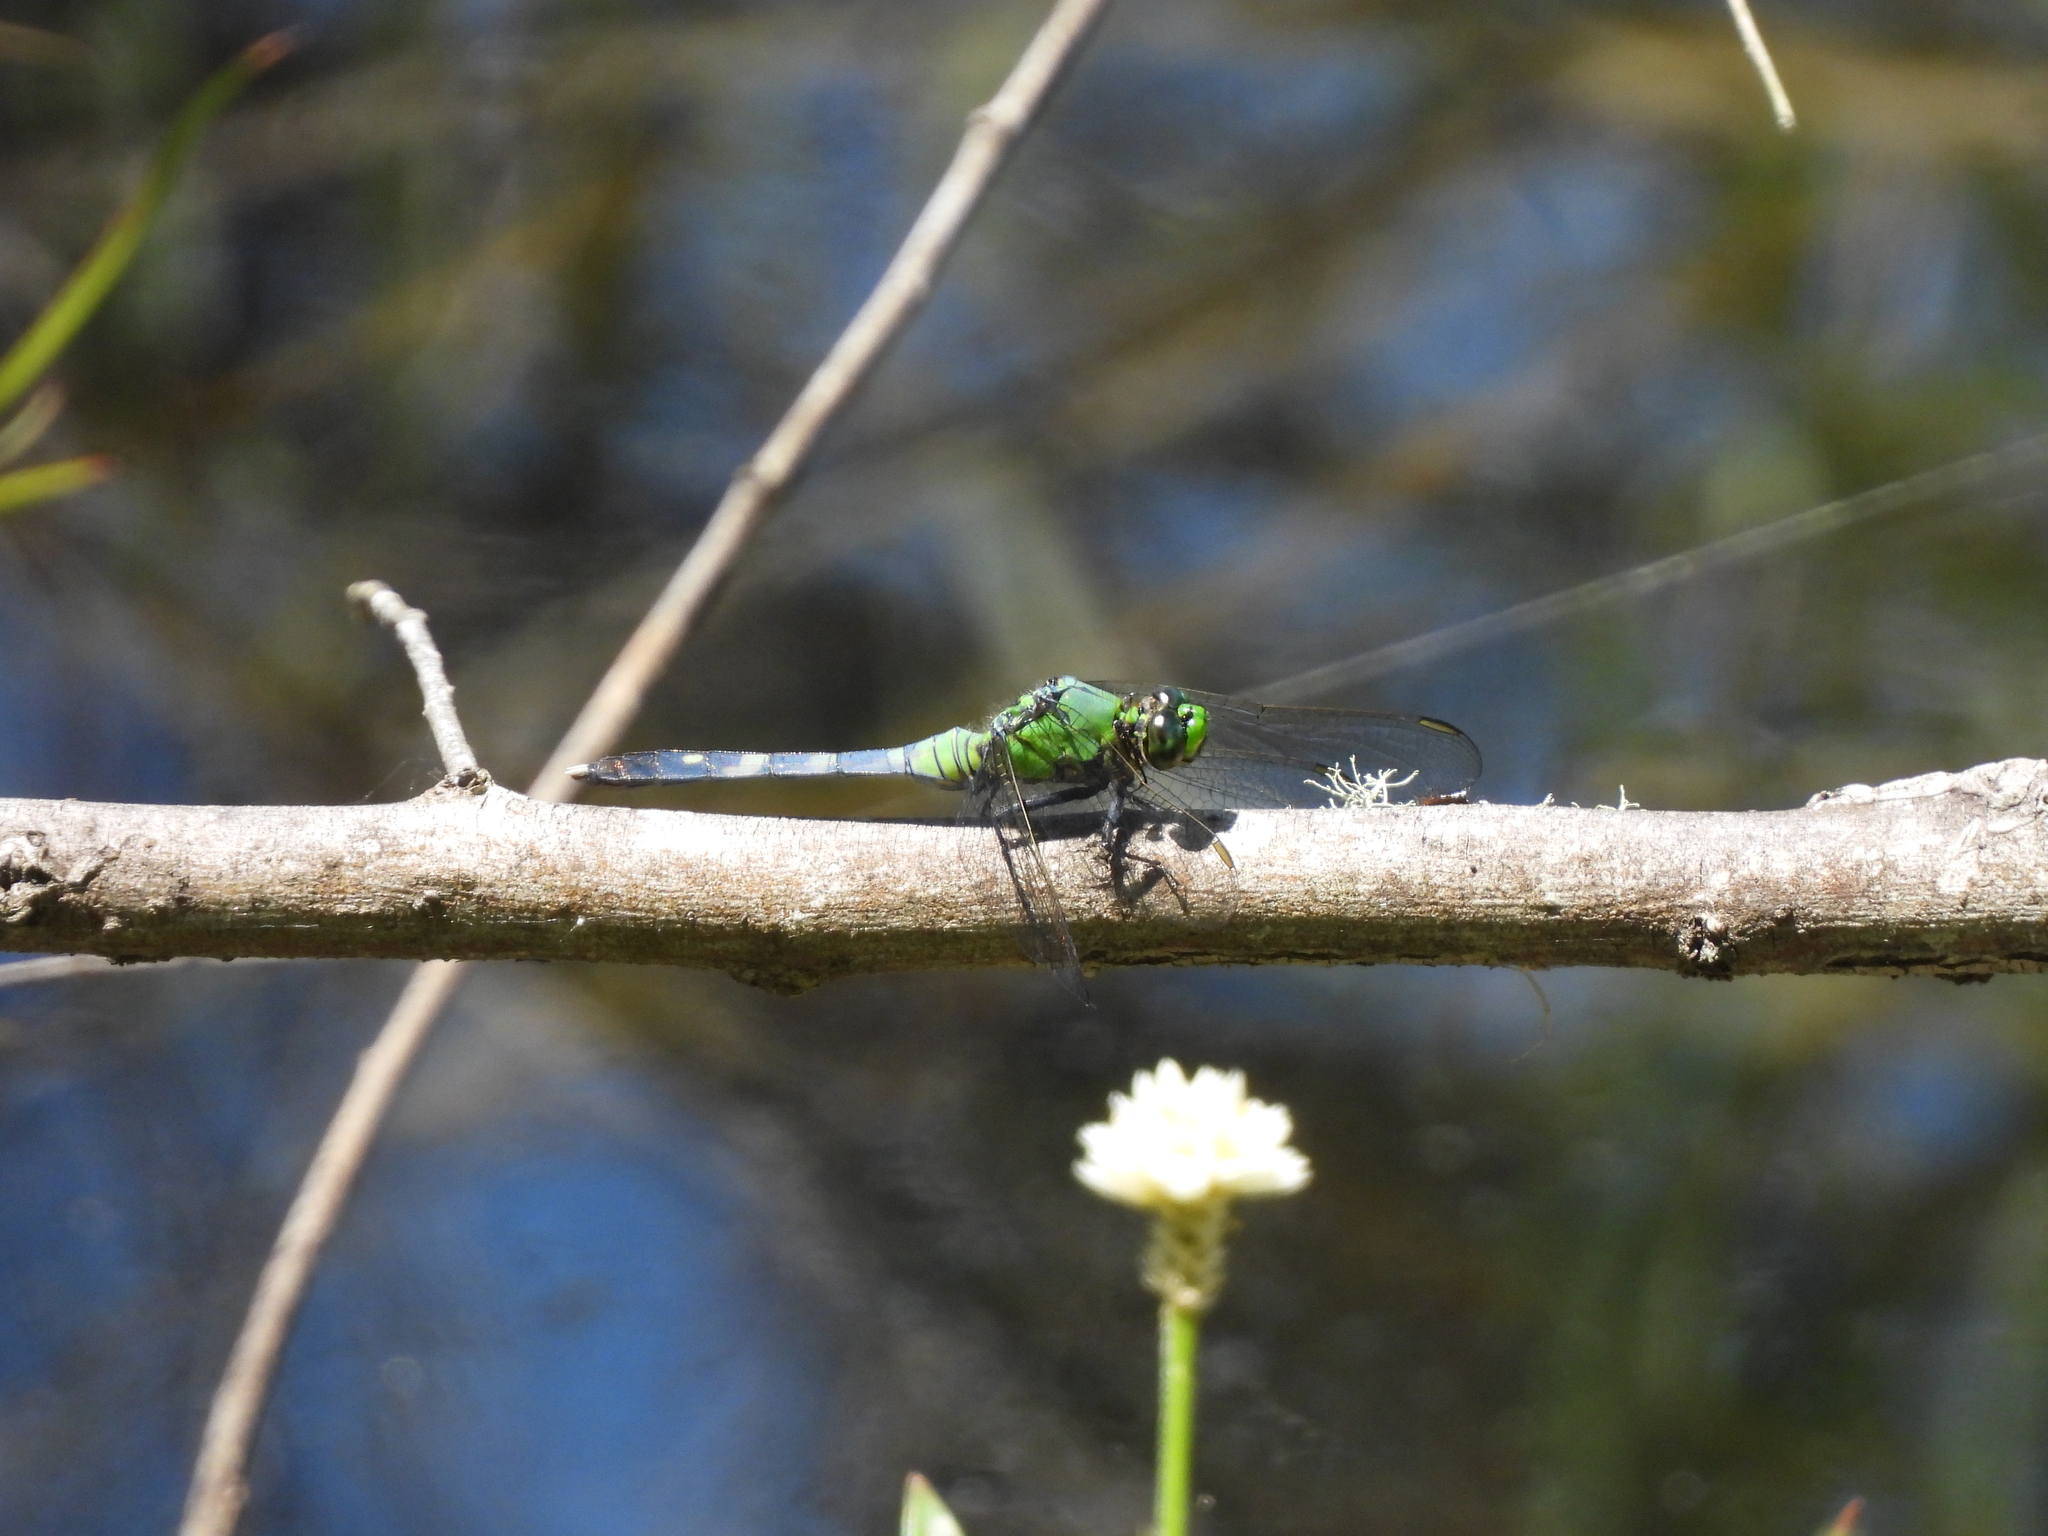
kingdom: Animalia
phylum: Arthropoda
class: Insecta
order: Odonata
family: Libellulidae
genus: Erythemis
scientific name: Erythemis simplicicollis
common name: Eastern pondhawk
